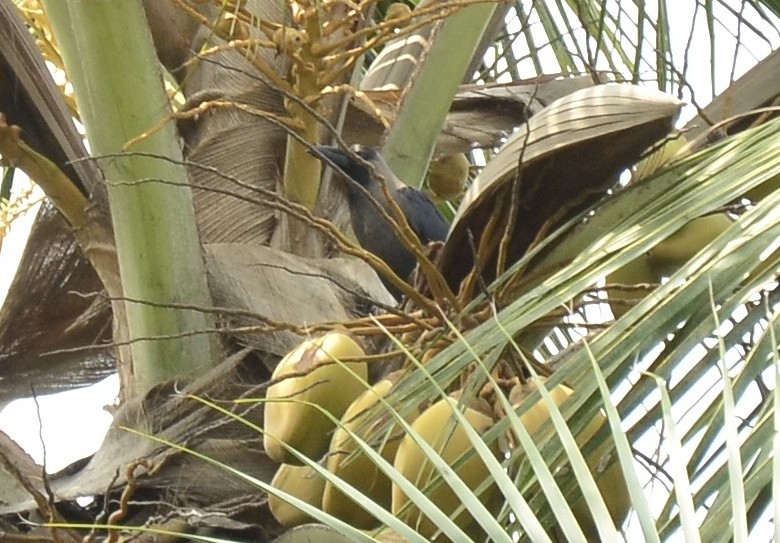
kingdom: Animalia
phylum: Chordata
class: Aves
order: Passeriformes
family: Corvidae
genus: Corvus
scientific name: Corvus splendens
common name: House crow
